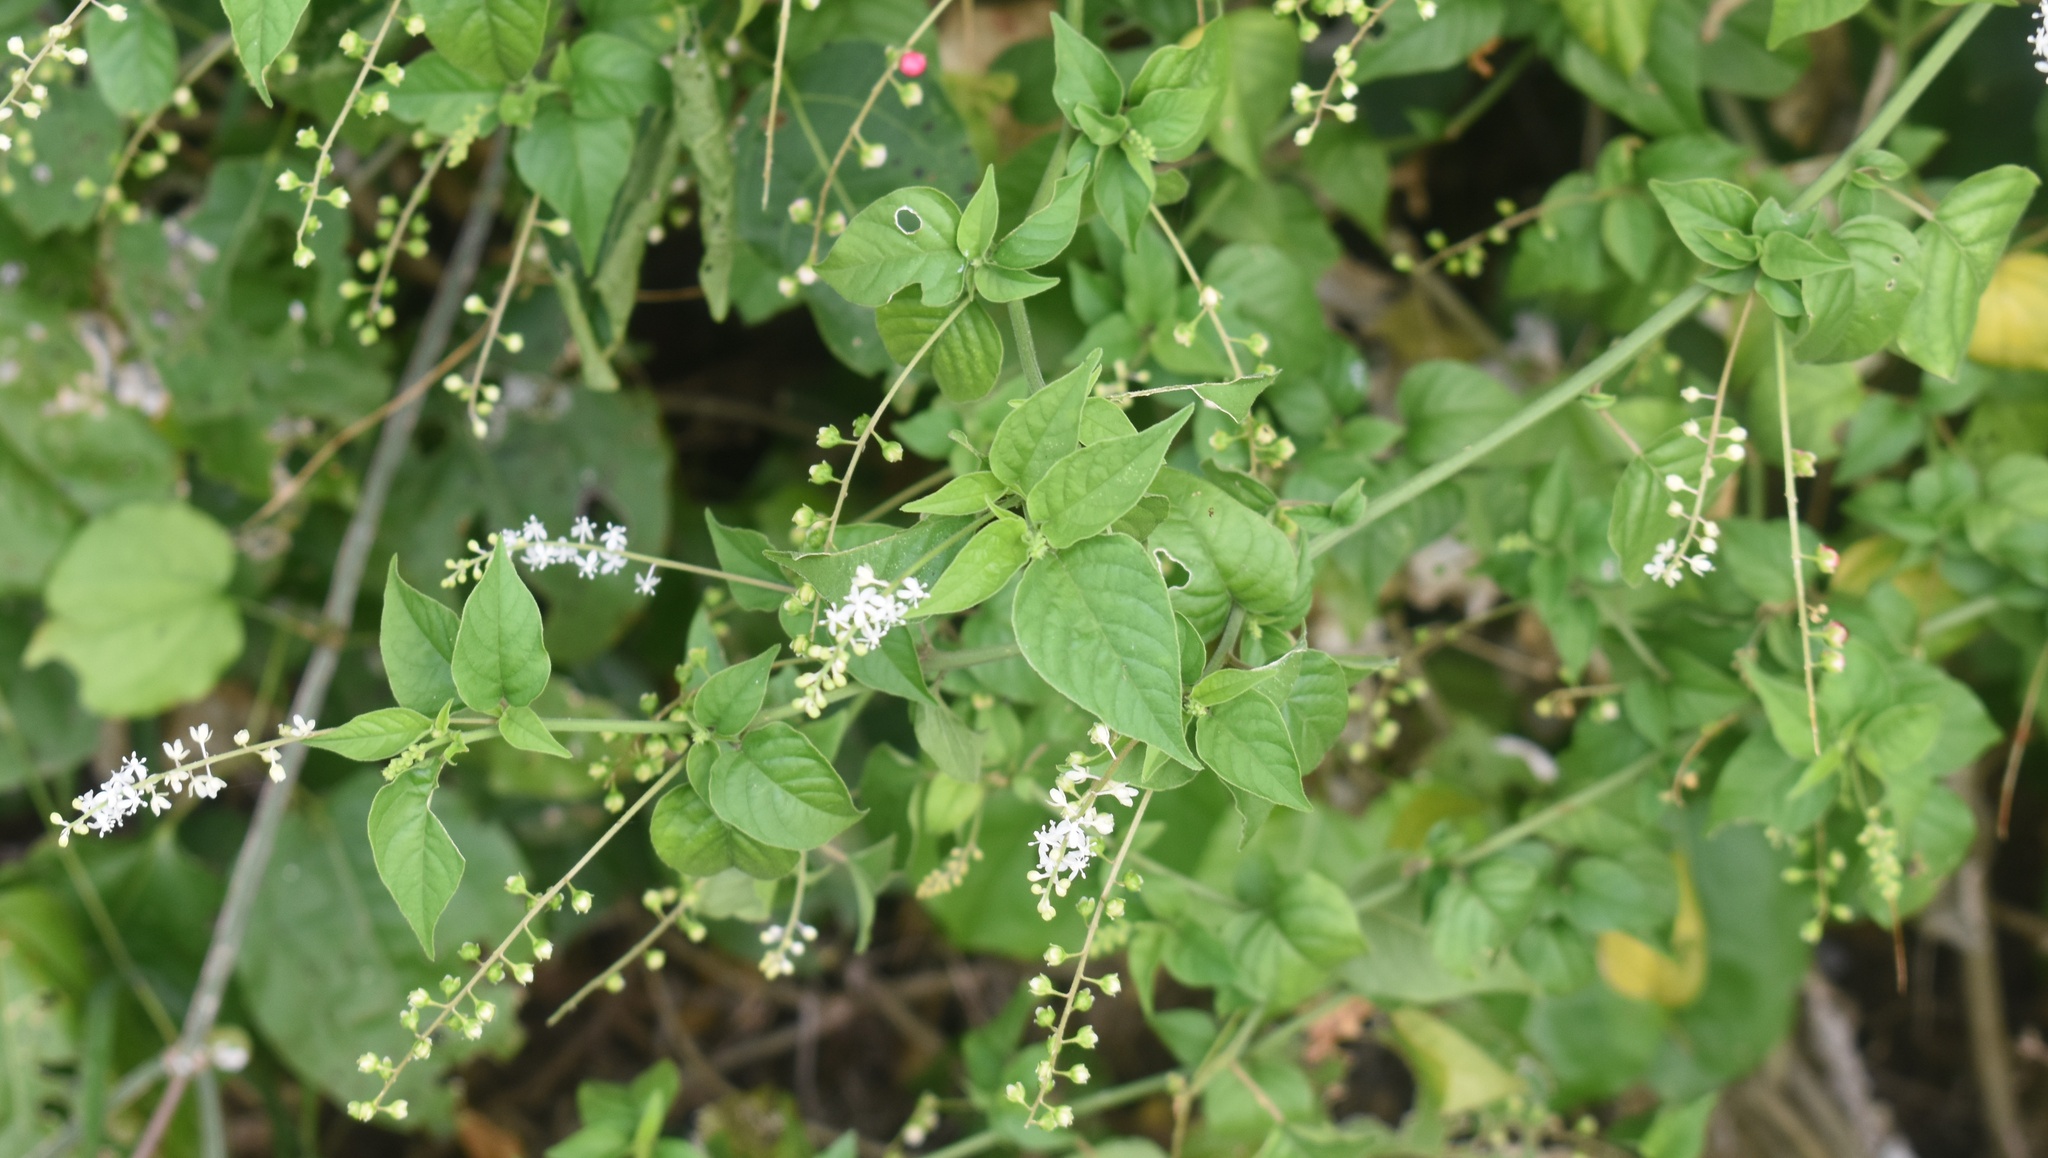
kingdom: Plantae
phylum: Tracheophyta
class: Magnoliopsida
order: Caryophyllales
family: Phytolaccaceae
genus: Rivina
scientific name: Rivina humilis
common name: Rougeplant
